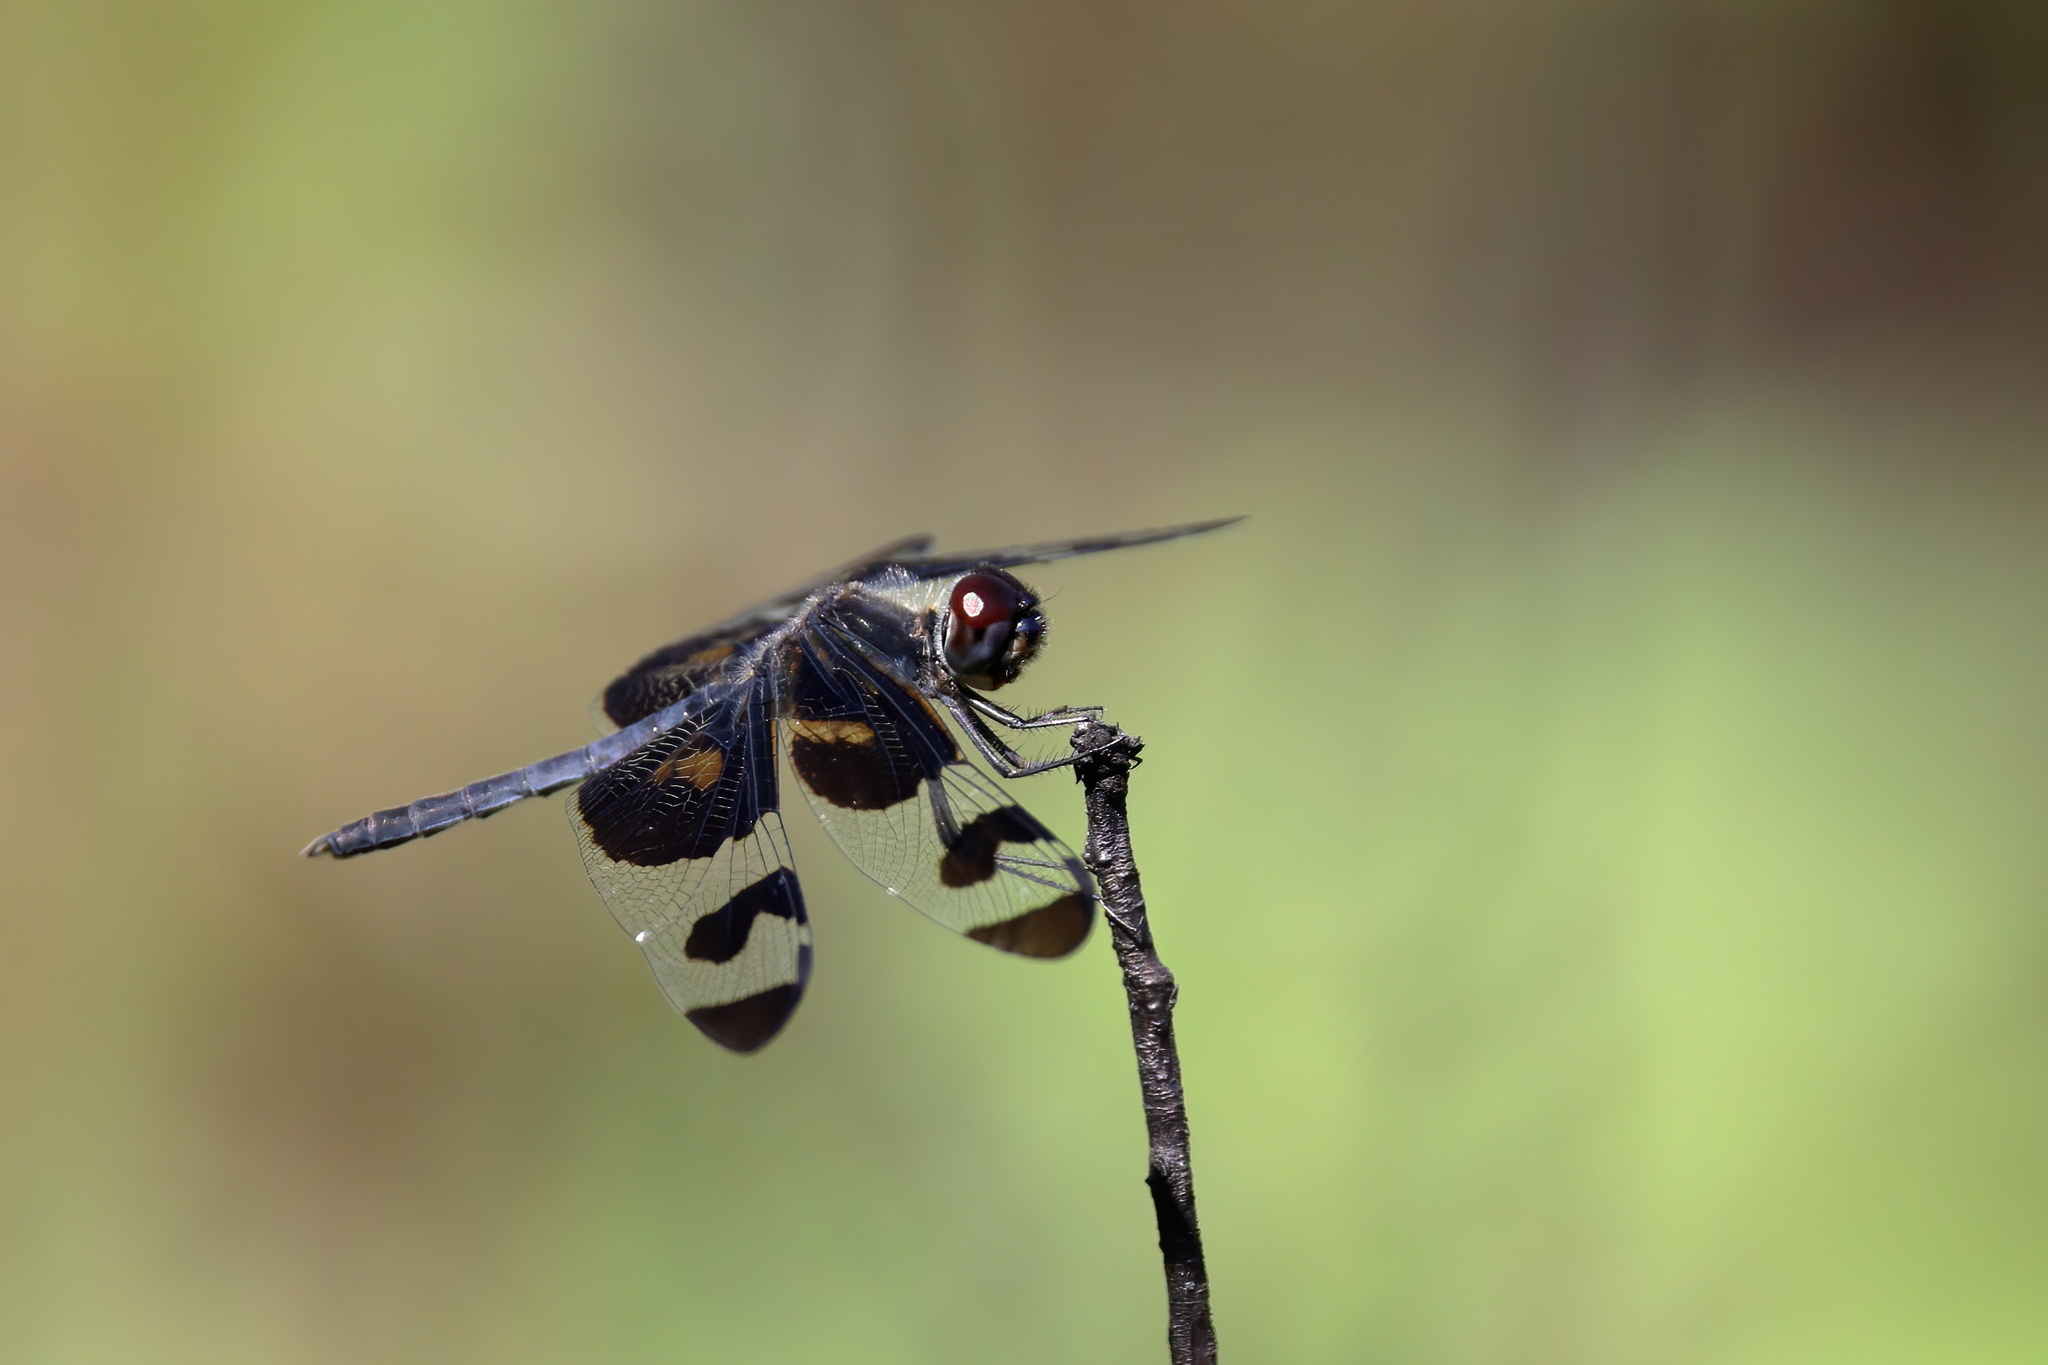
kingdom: Animalia
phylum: Arthropoda
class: Insecta
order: Odonata
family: Libellulidae
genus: Celithemis
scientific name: Celithemis fasciata
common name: Banded pennant
